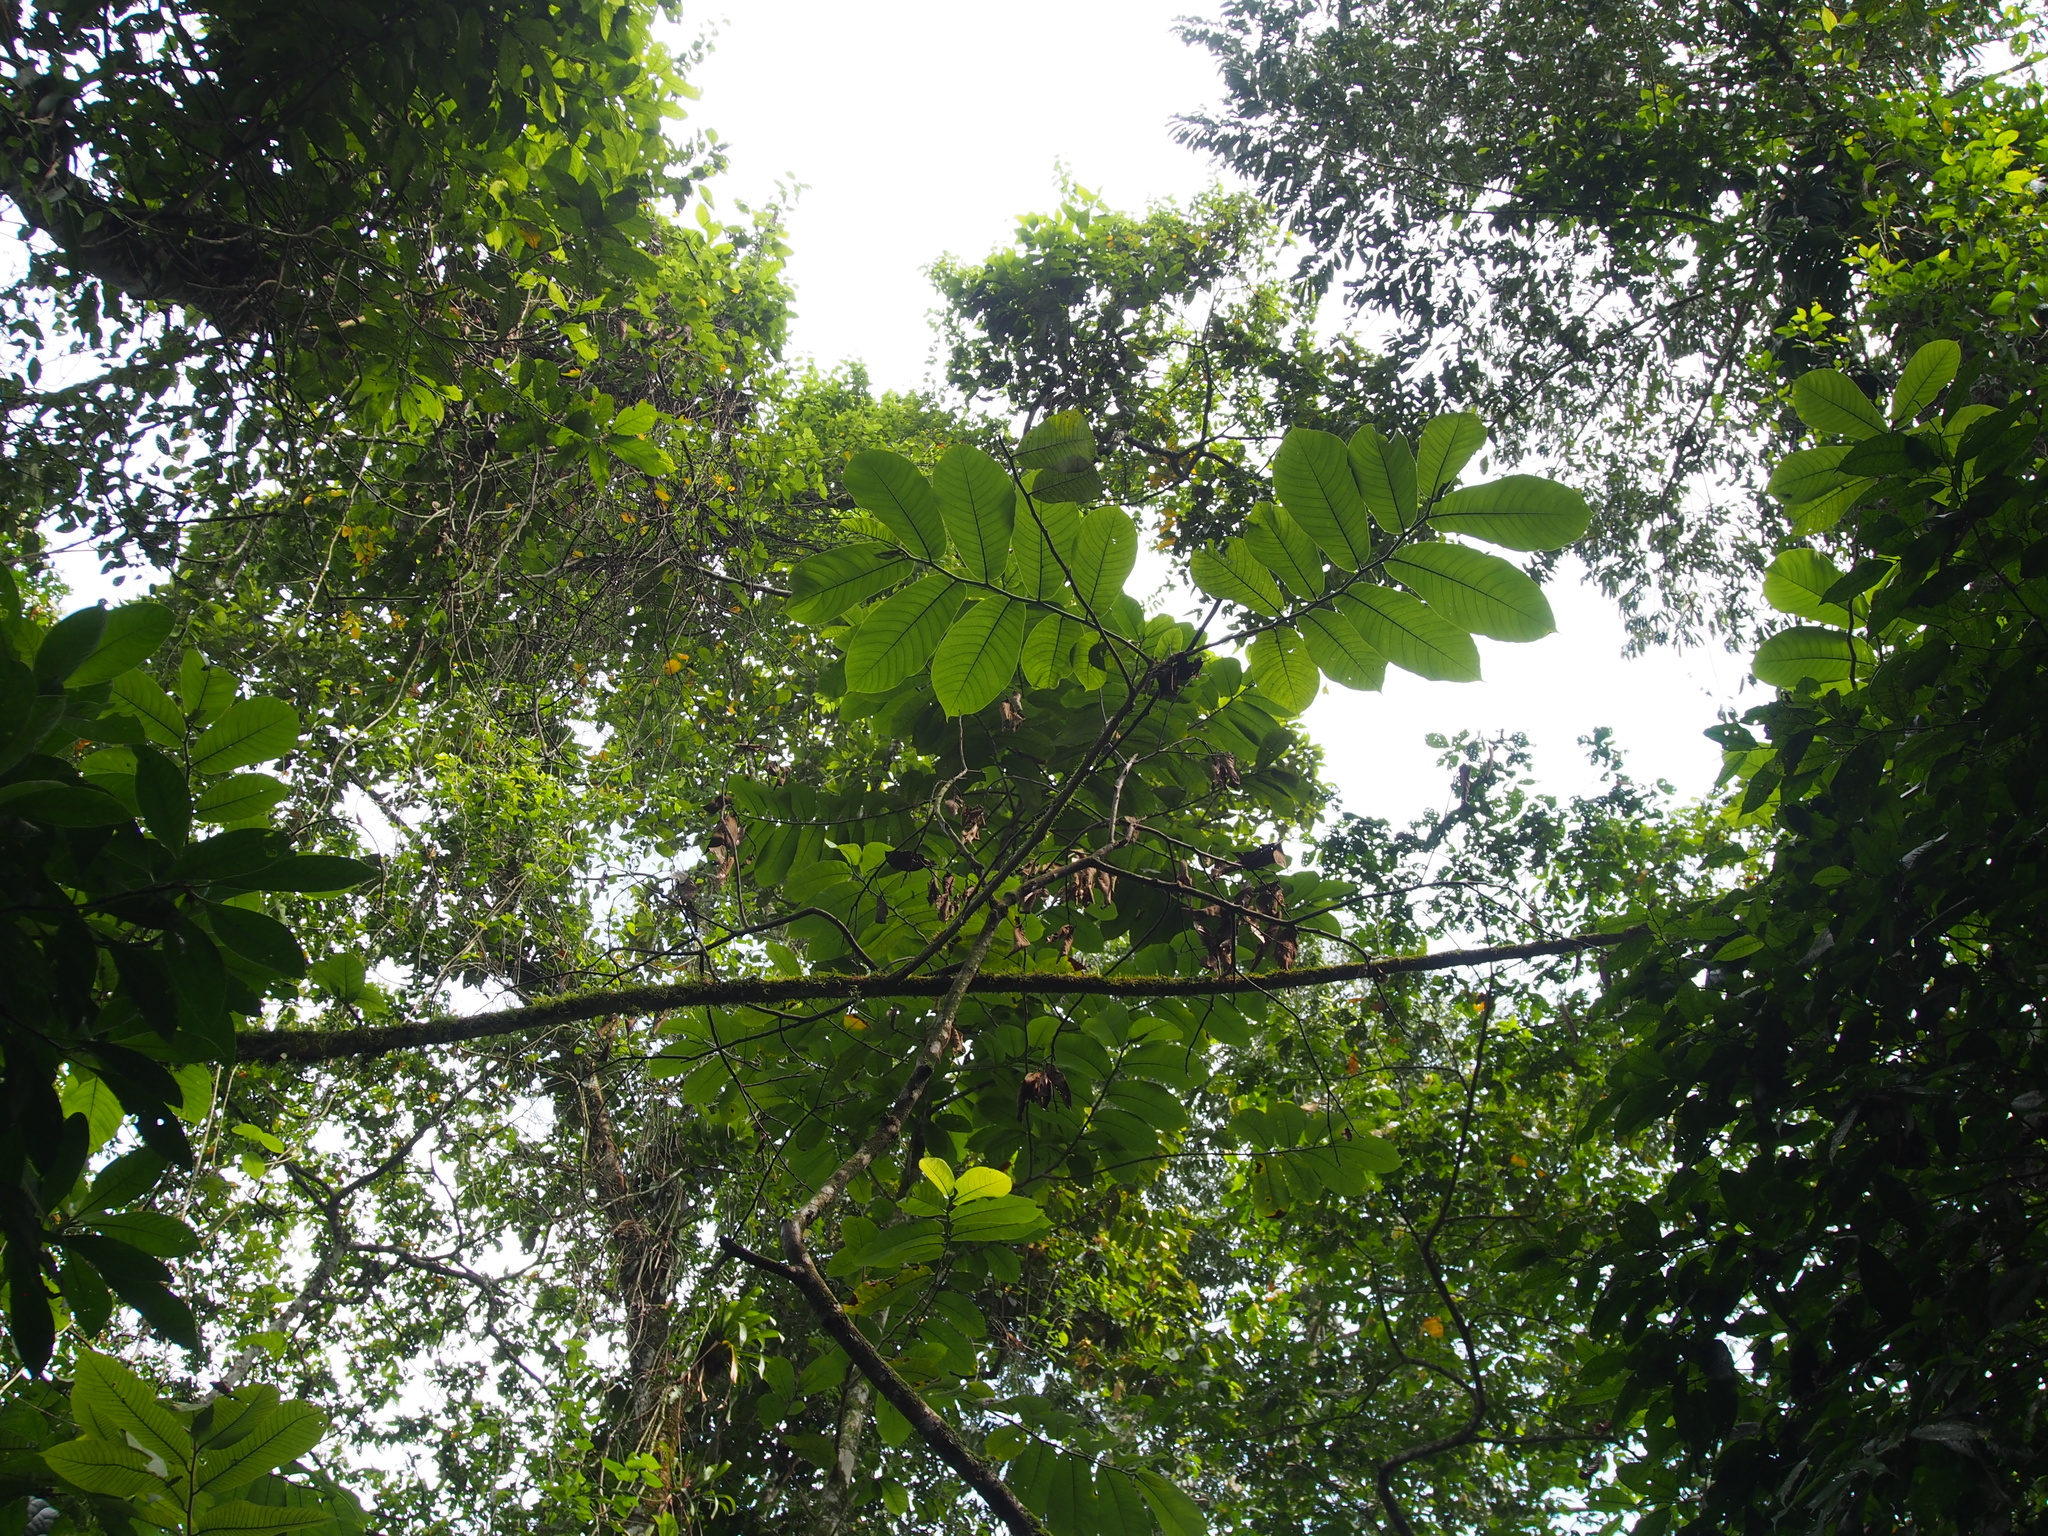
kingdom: Plantae
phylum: Tracheophyta
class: Magnoliopsida
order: Rosales
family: Moraceae
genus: Castilla
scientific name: Castilla elastica
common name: Castilla rubber
